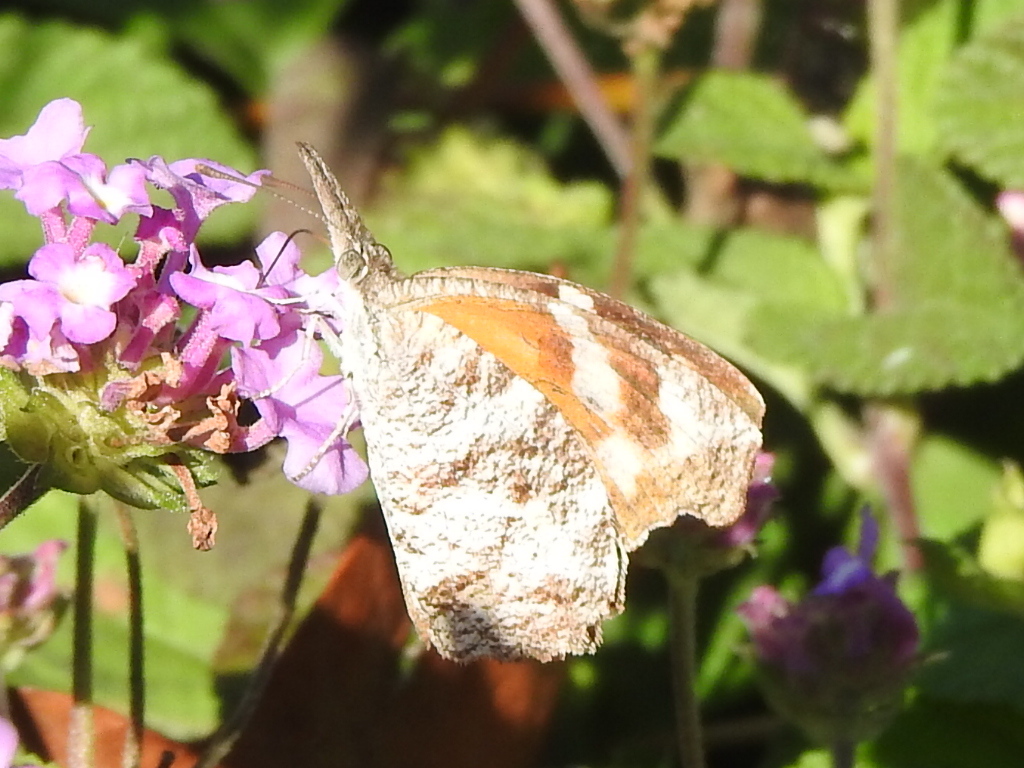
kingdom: Animalia
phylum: Arthropoda
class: Insecta
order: Lepidoptera
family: Nymphalidae
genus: Libytheana
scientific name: Libytheana carinenta
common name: American snout
